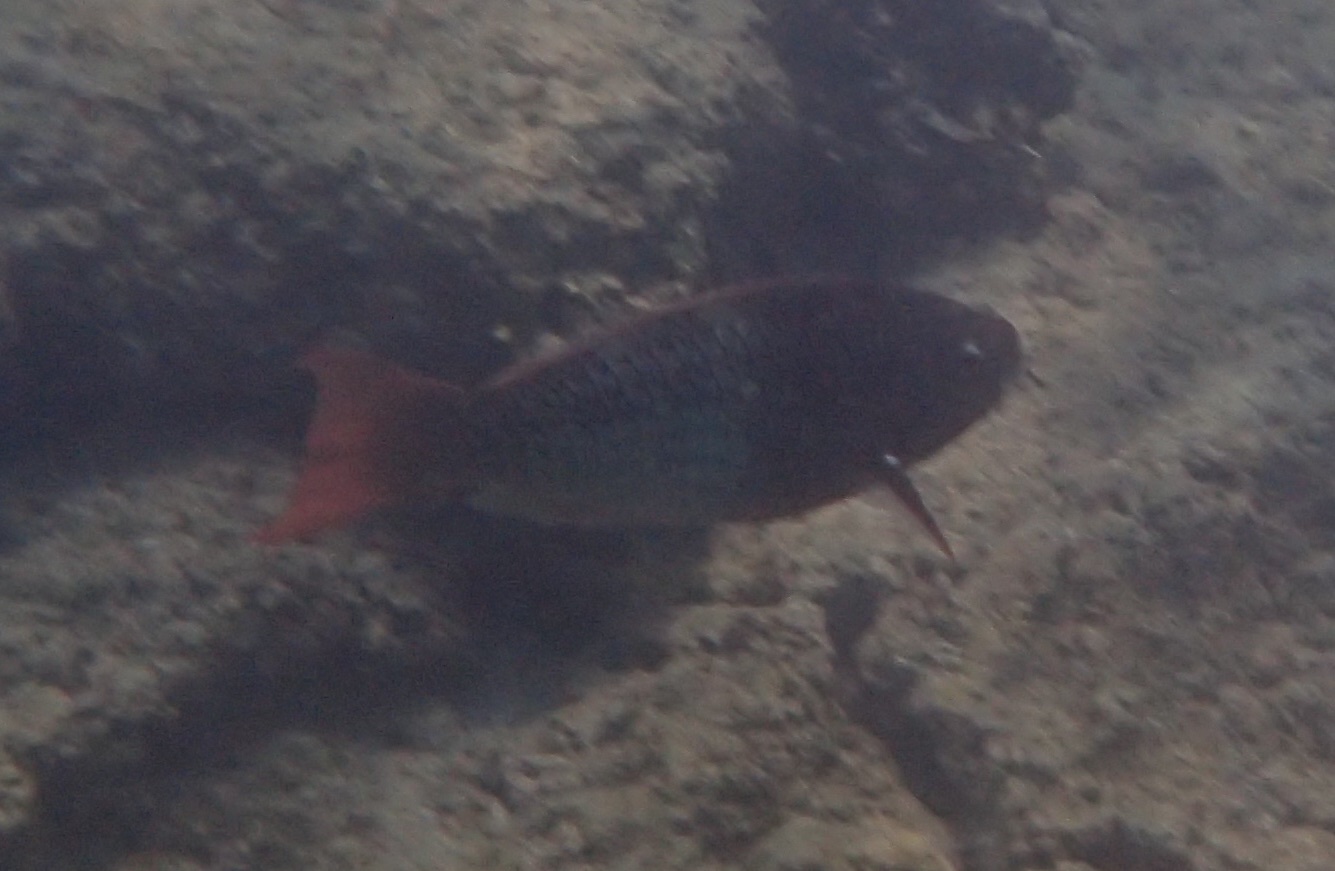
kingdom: Animalia
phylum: Chordata
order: Perciformes
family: Scaridae
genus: Scarus
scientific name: Scarus rubroviolaceus
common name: Ember parrotfish
